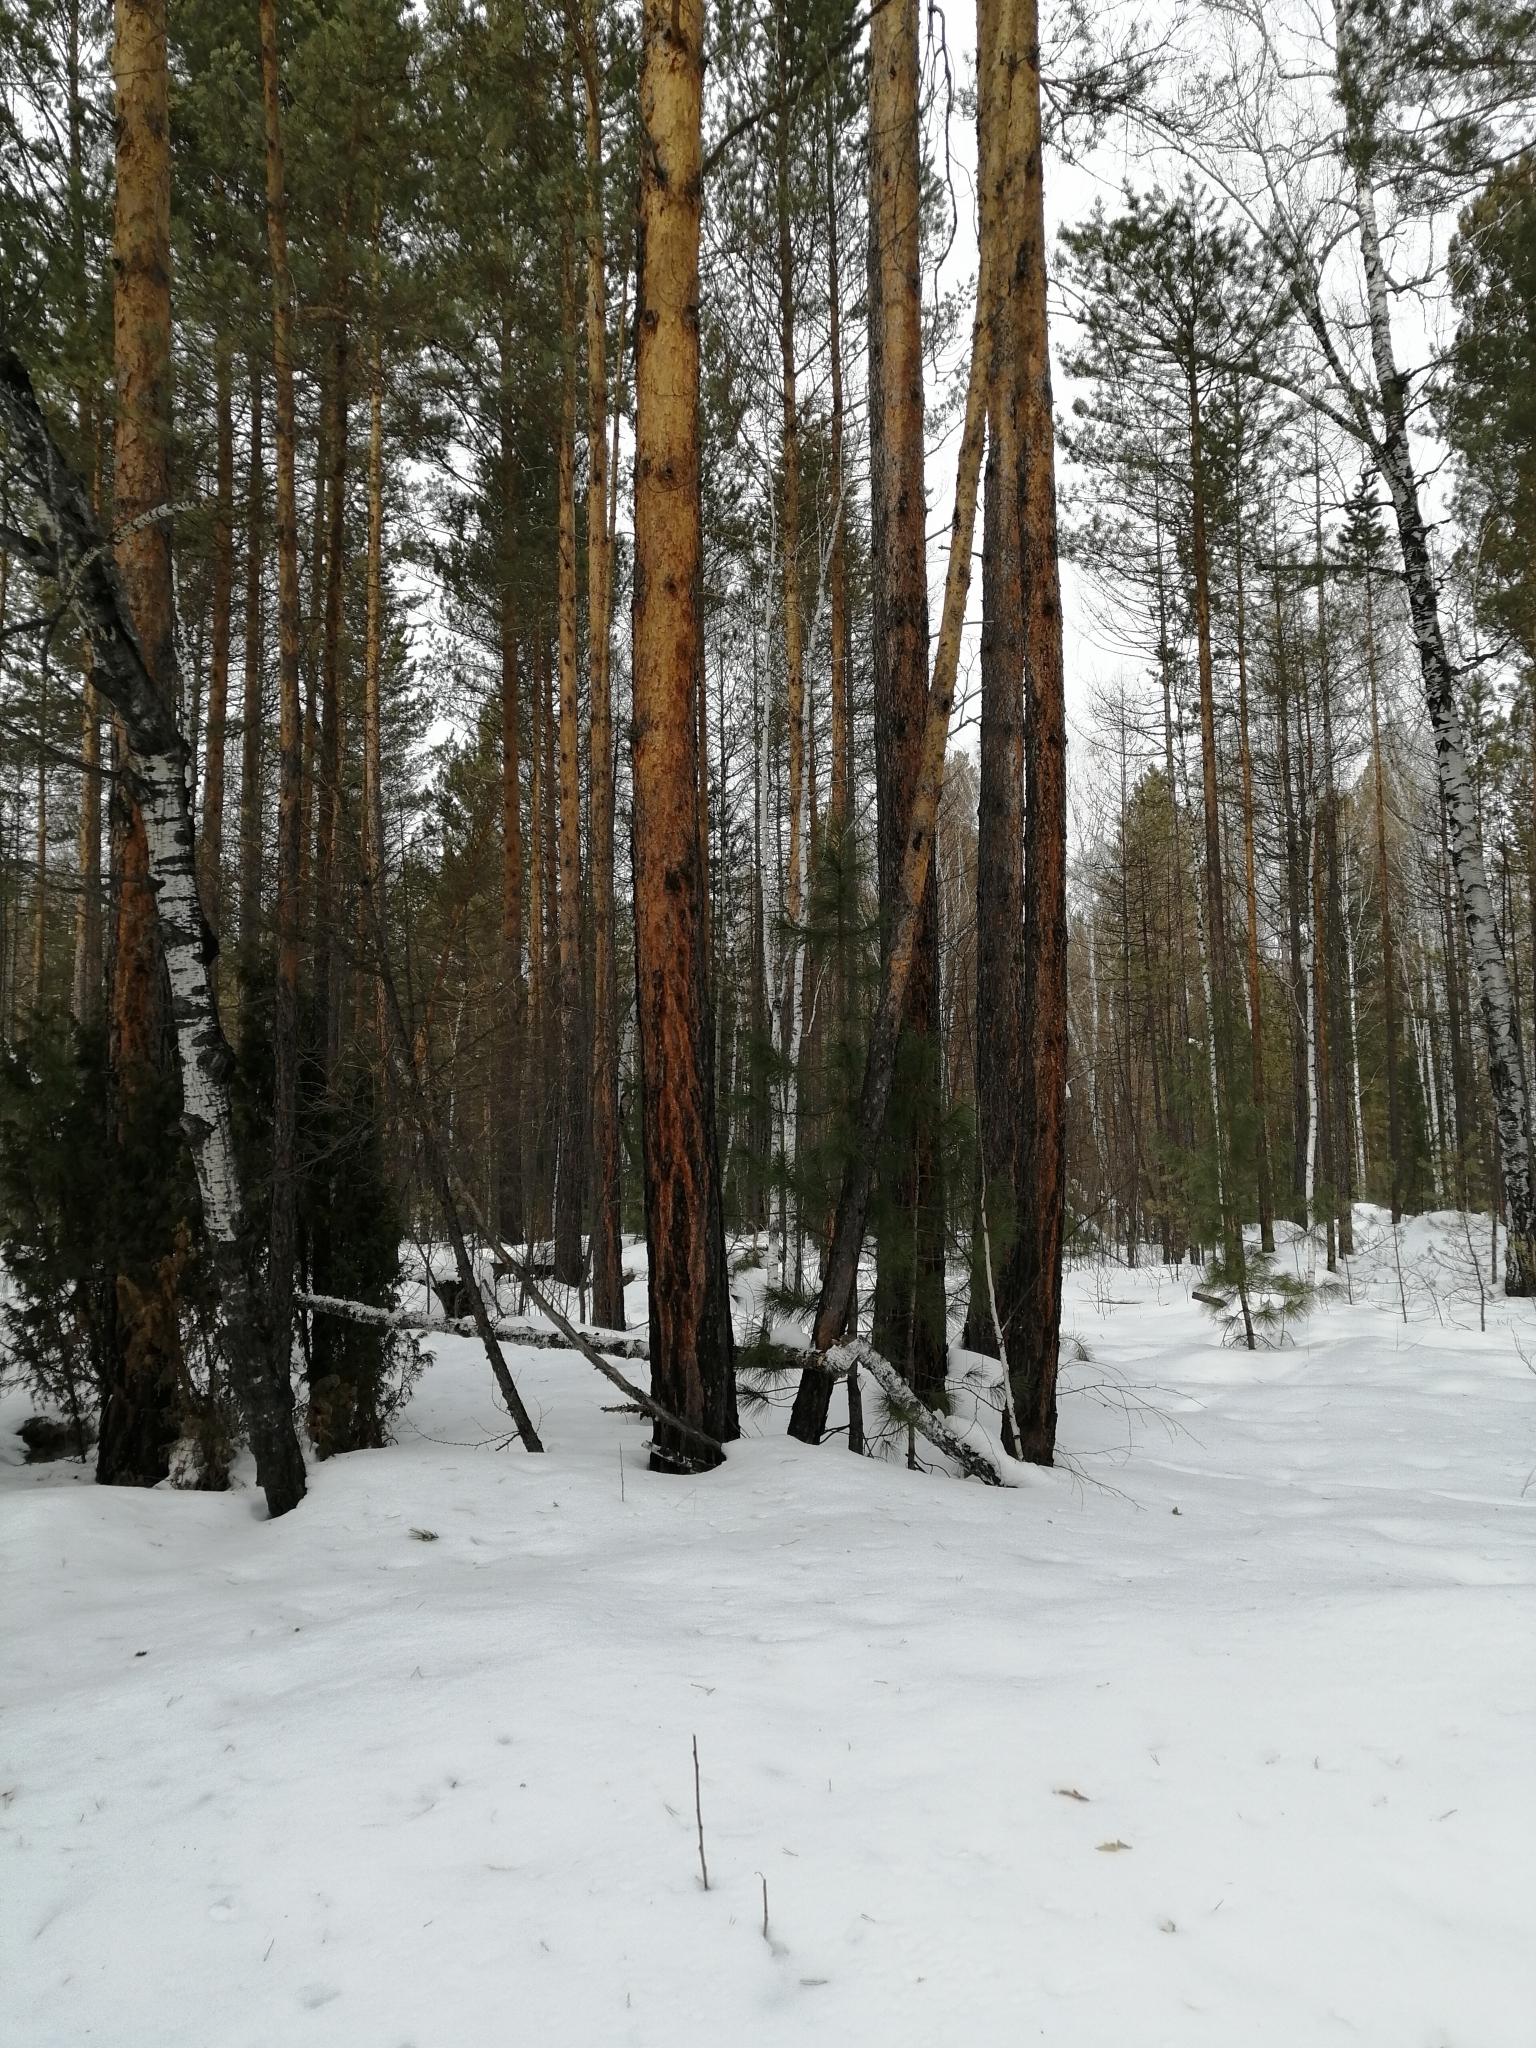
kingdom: Plantae
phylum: Tracheophyta
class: Pinopsida
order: Pinales
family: Pinaceae
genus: Pinus
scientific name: Pinus sibirica
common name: Siberian pine
